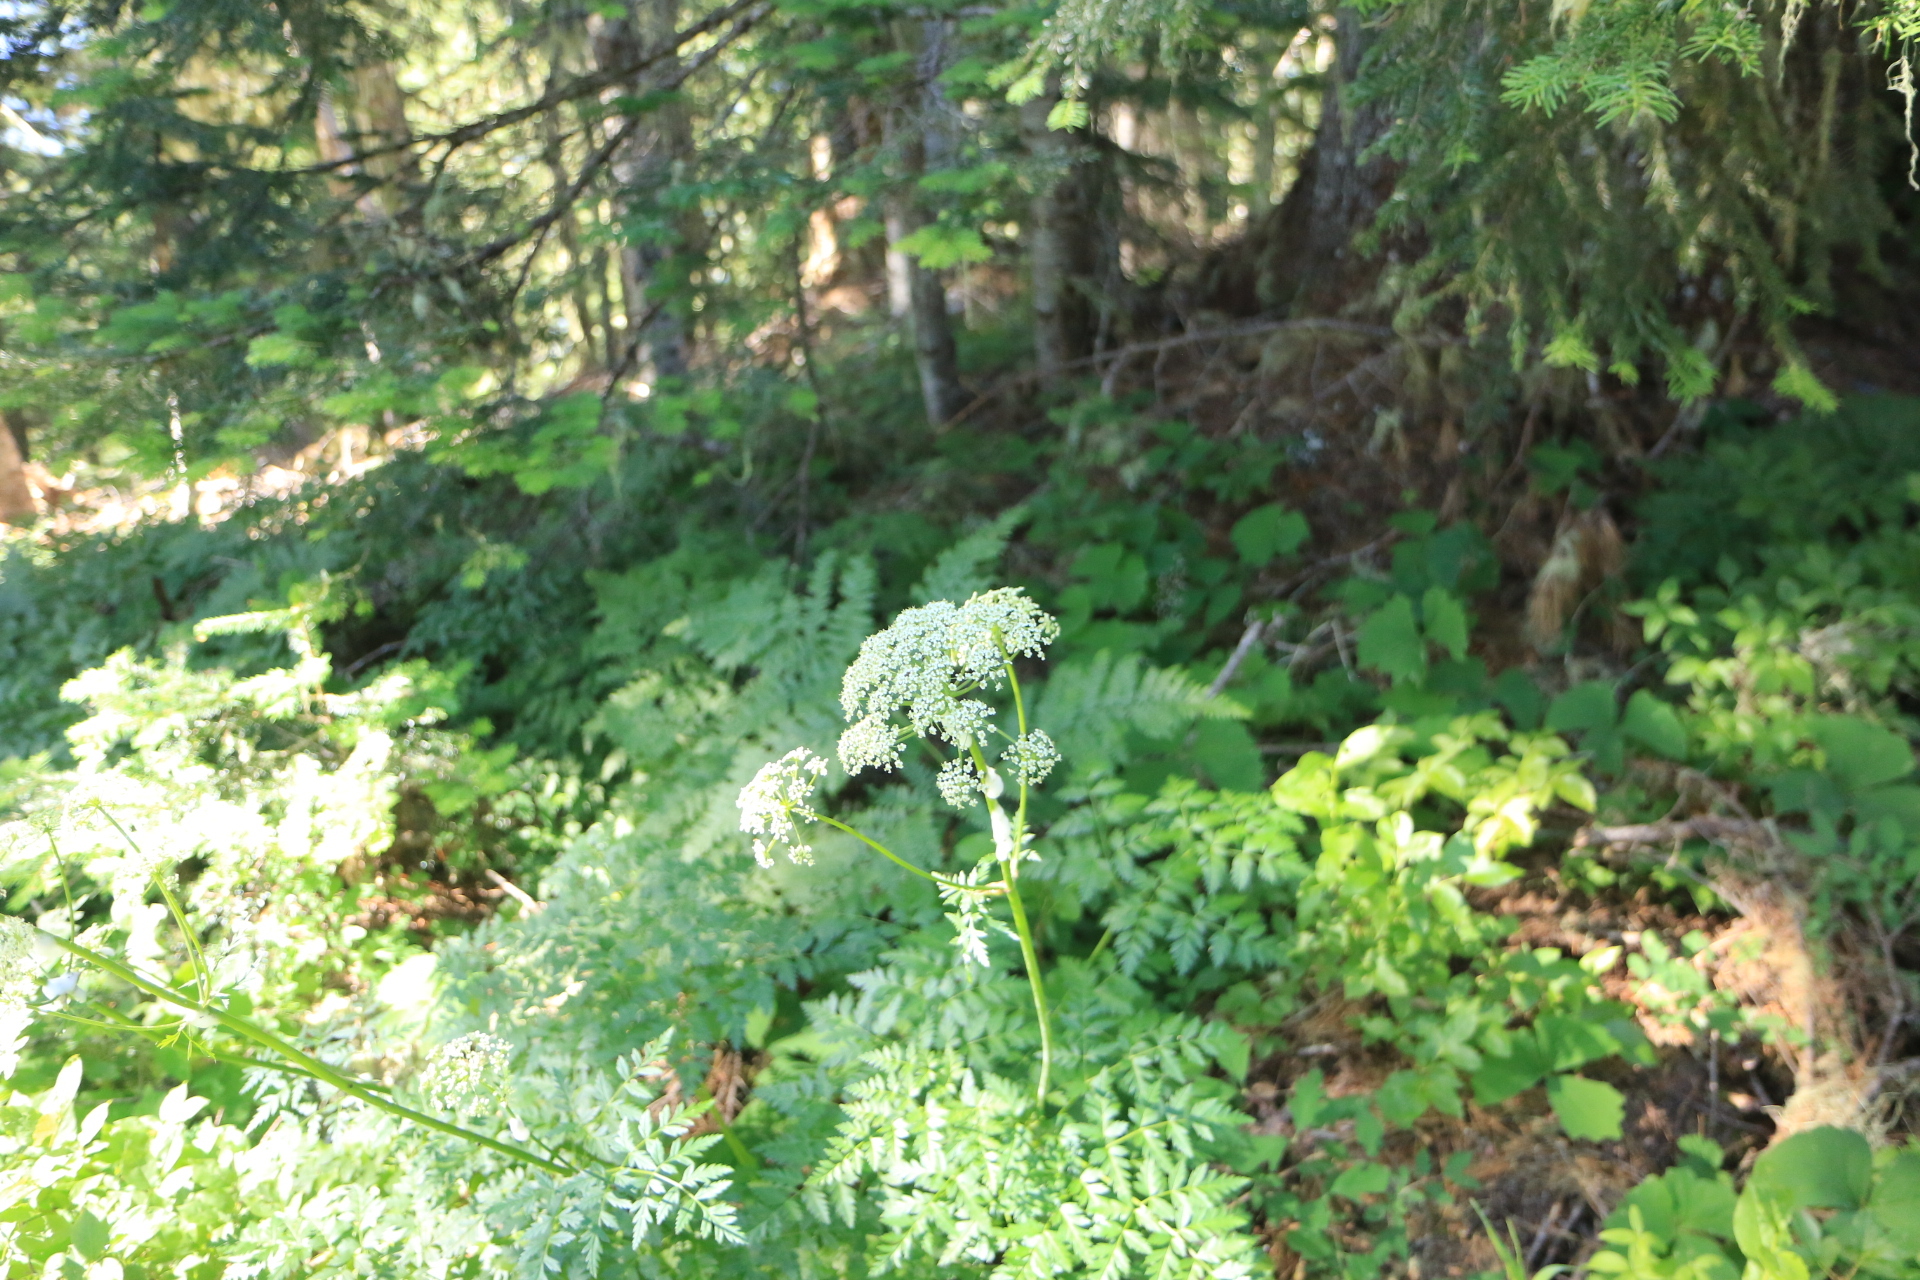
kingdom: Plantae
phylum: Tracheophyta
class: Magnoliopsida
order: Apiales
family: Apiaceae
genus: Ligusticum
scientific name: Ligusticum grayi
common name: Gray's licorice-root
